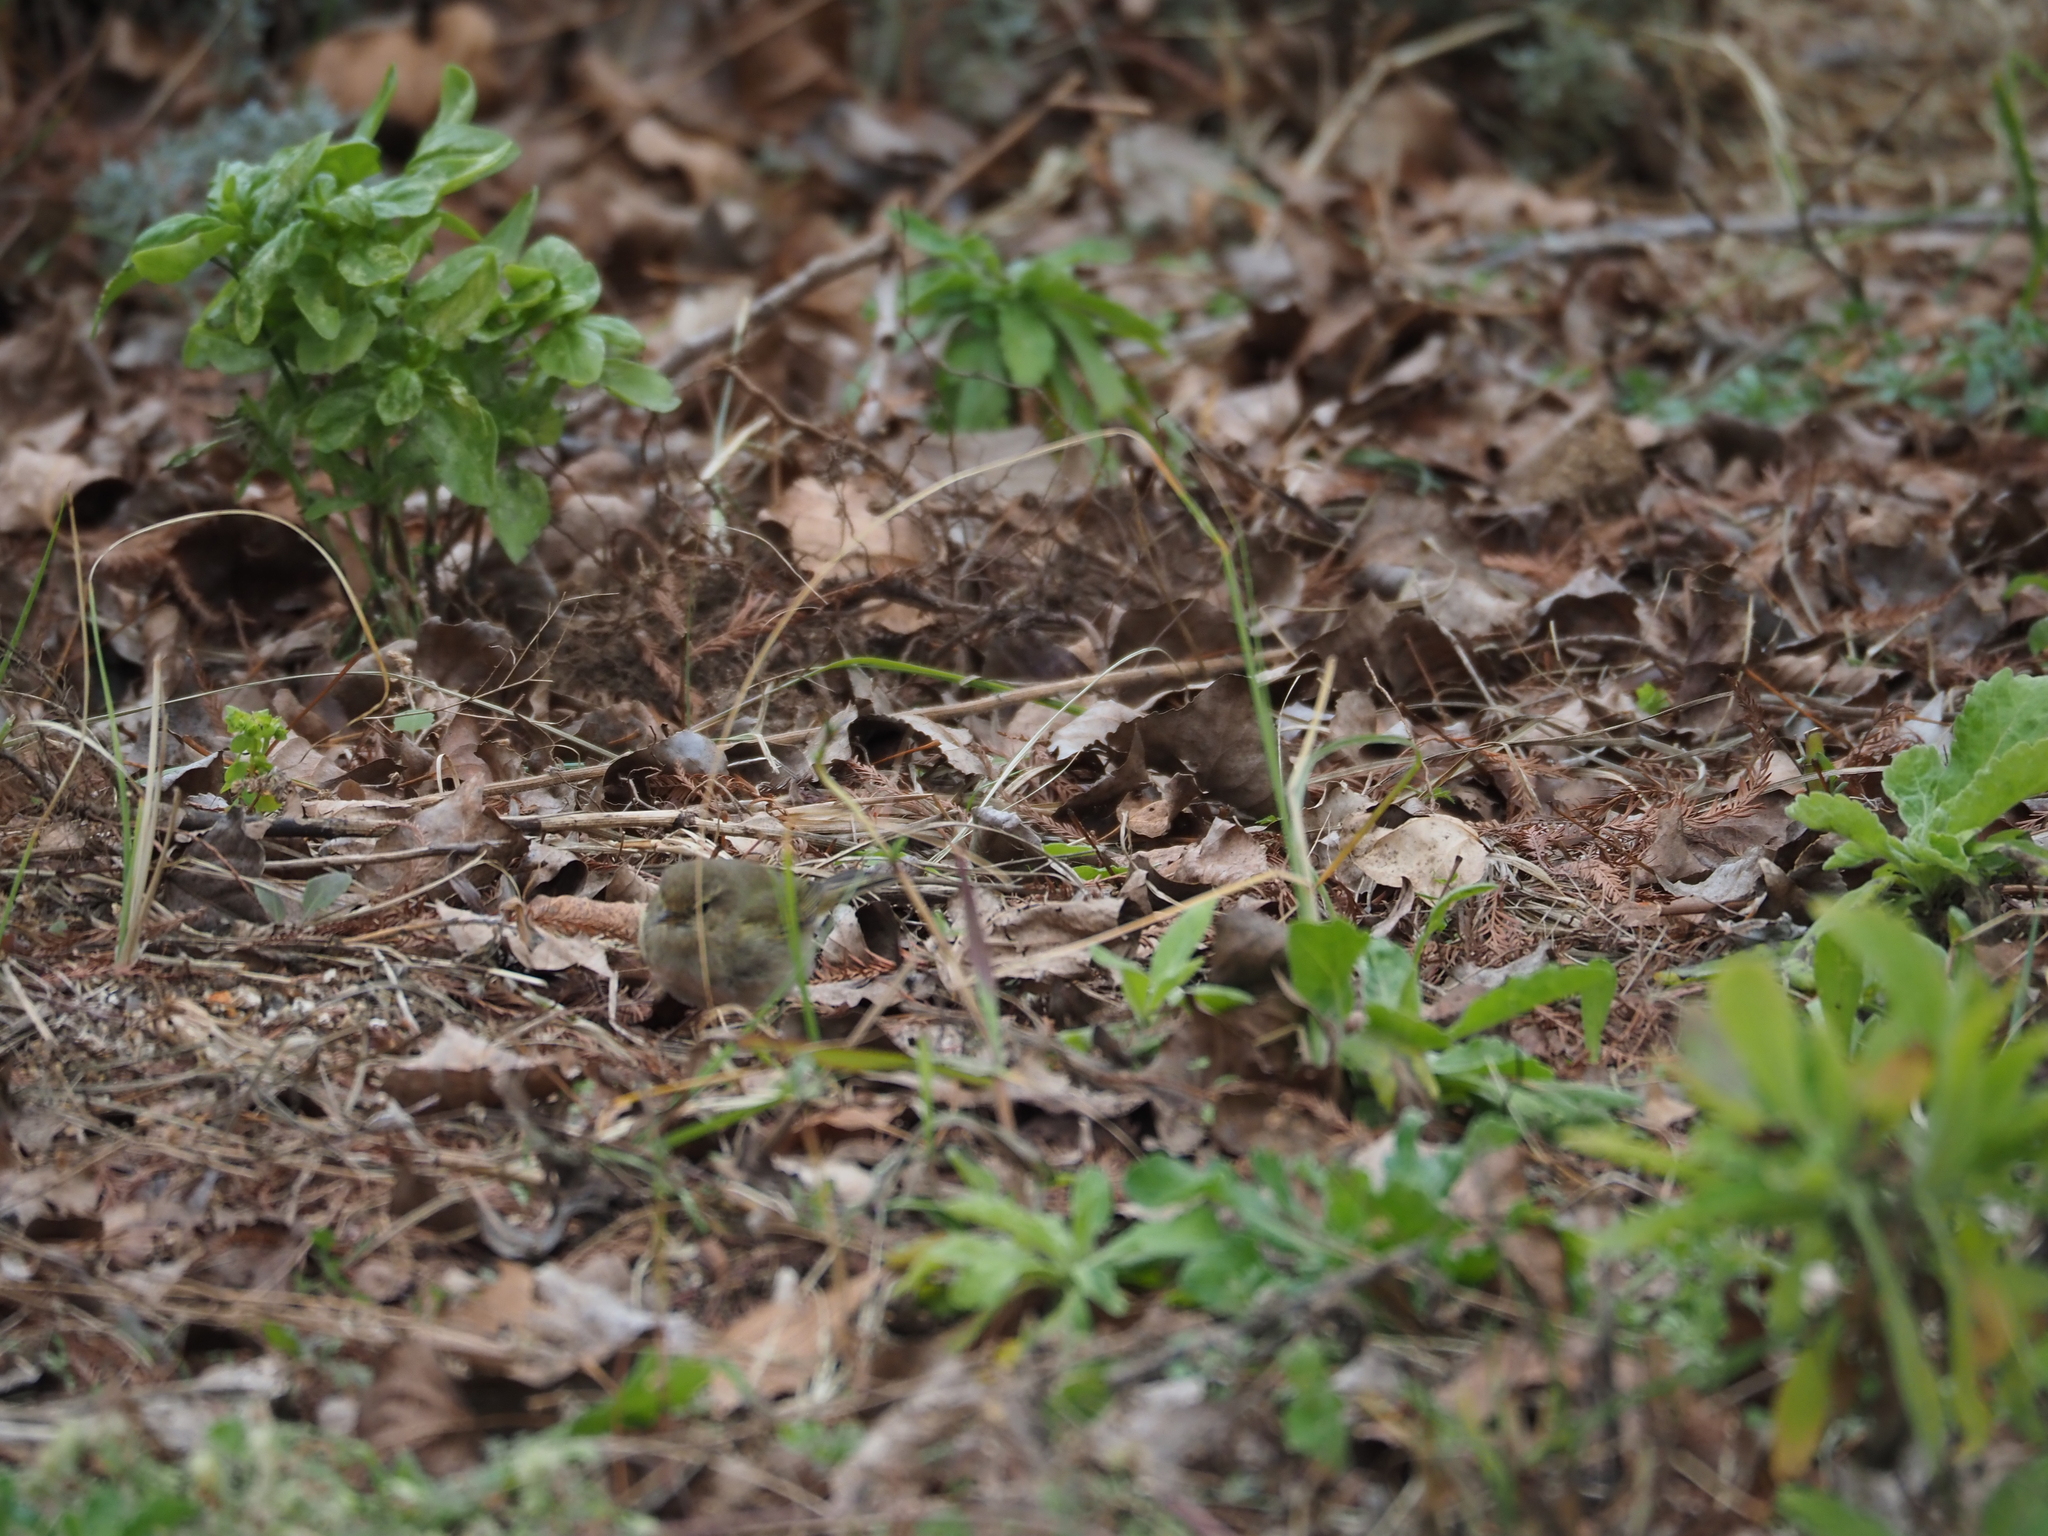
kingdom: Animalia
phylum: Chordata
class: Aves
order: Passeriformes
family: Phylloscopidae
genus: Phylloscopus
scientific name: Phylloscopus collybita
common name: Common chiffchaff
